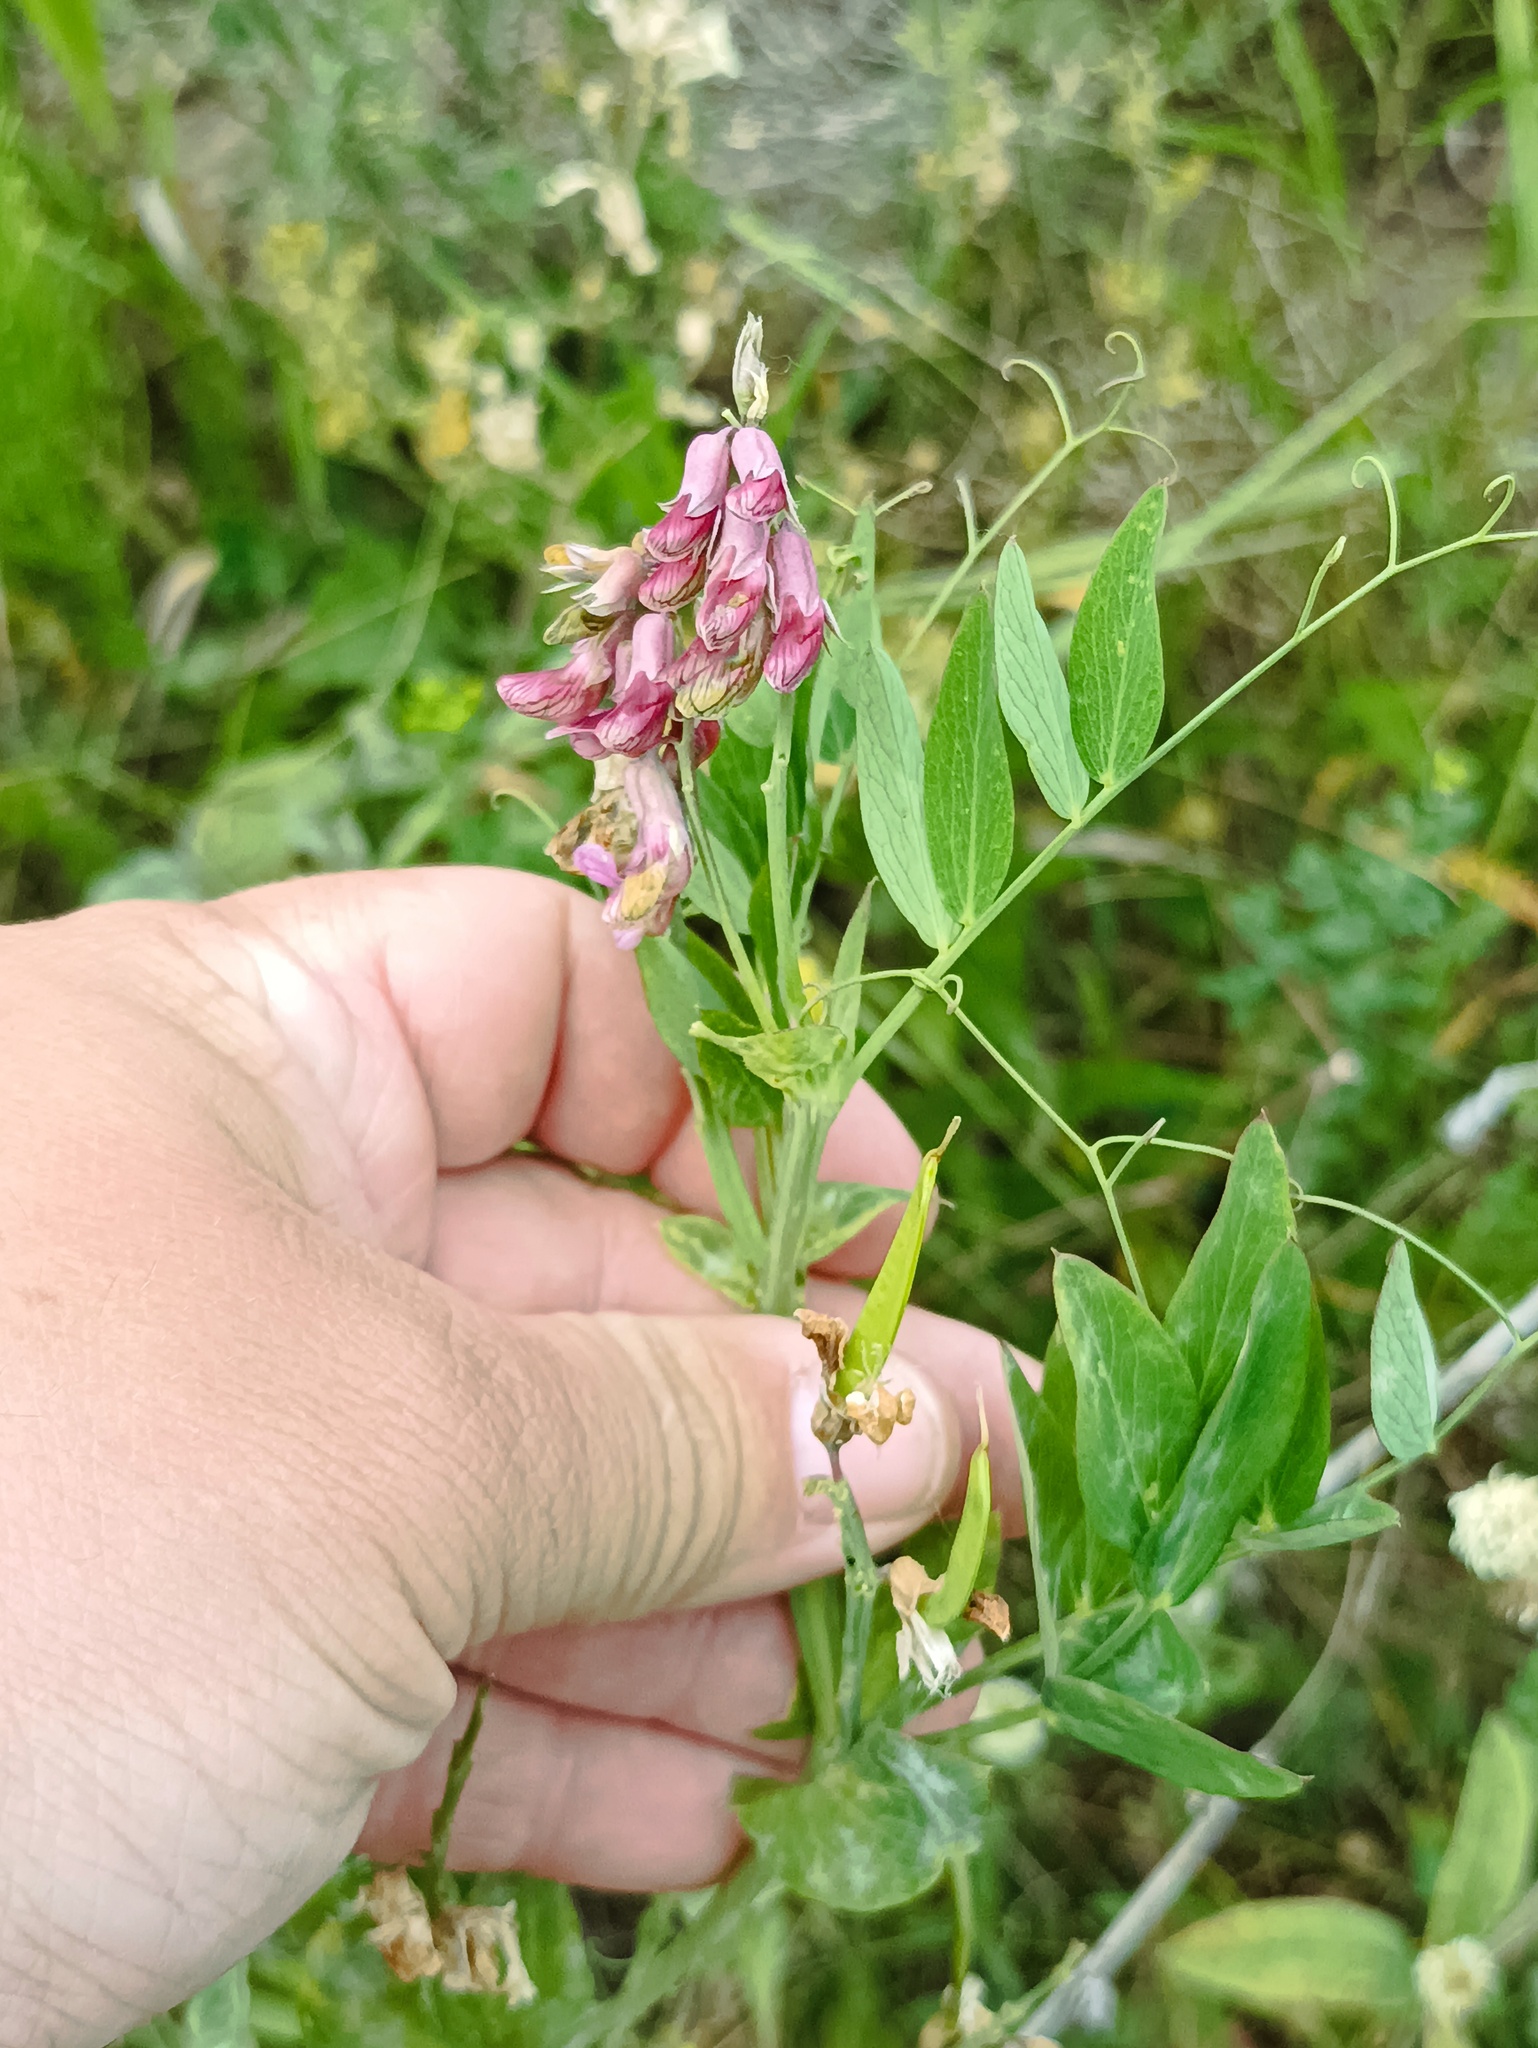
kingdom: Plantae
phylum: Tracheophyta
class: Magnoliopsida
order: Fabales
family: Fabaceae
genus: Lathyrus
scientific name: Lathyrus pisiformis
